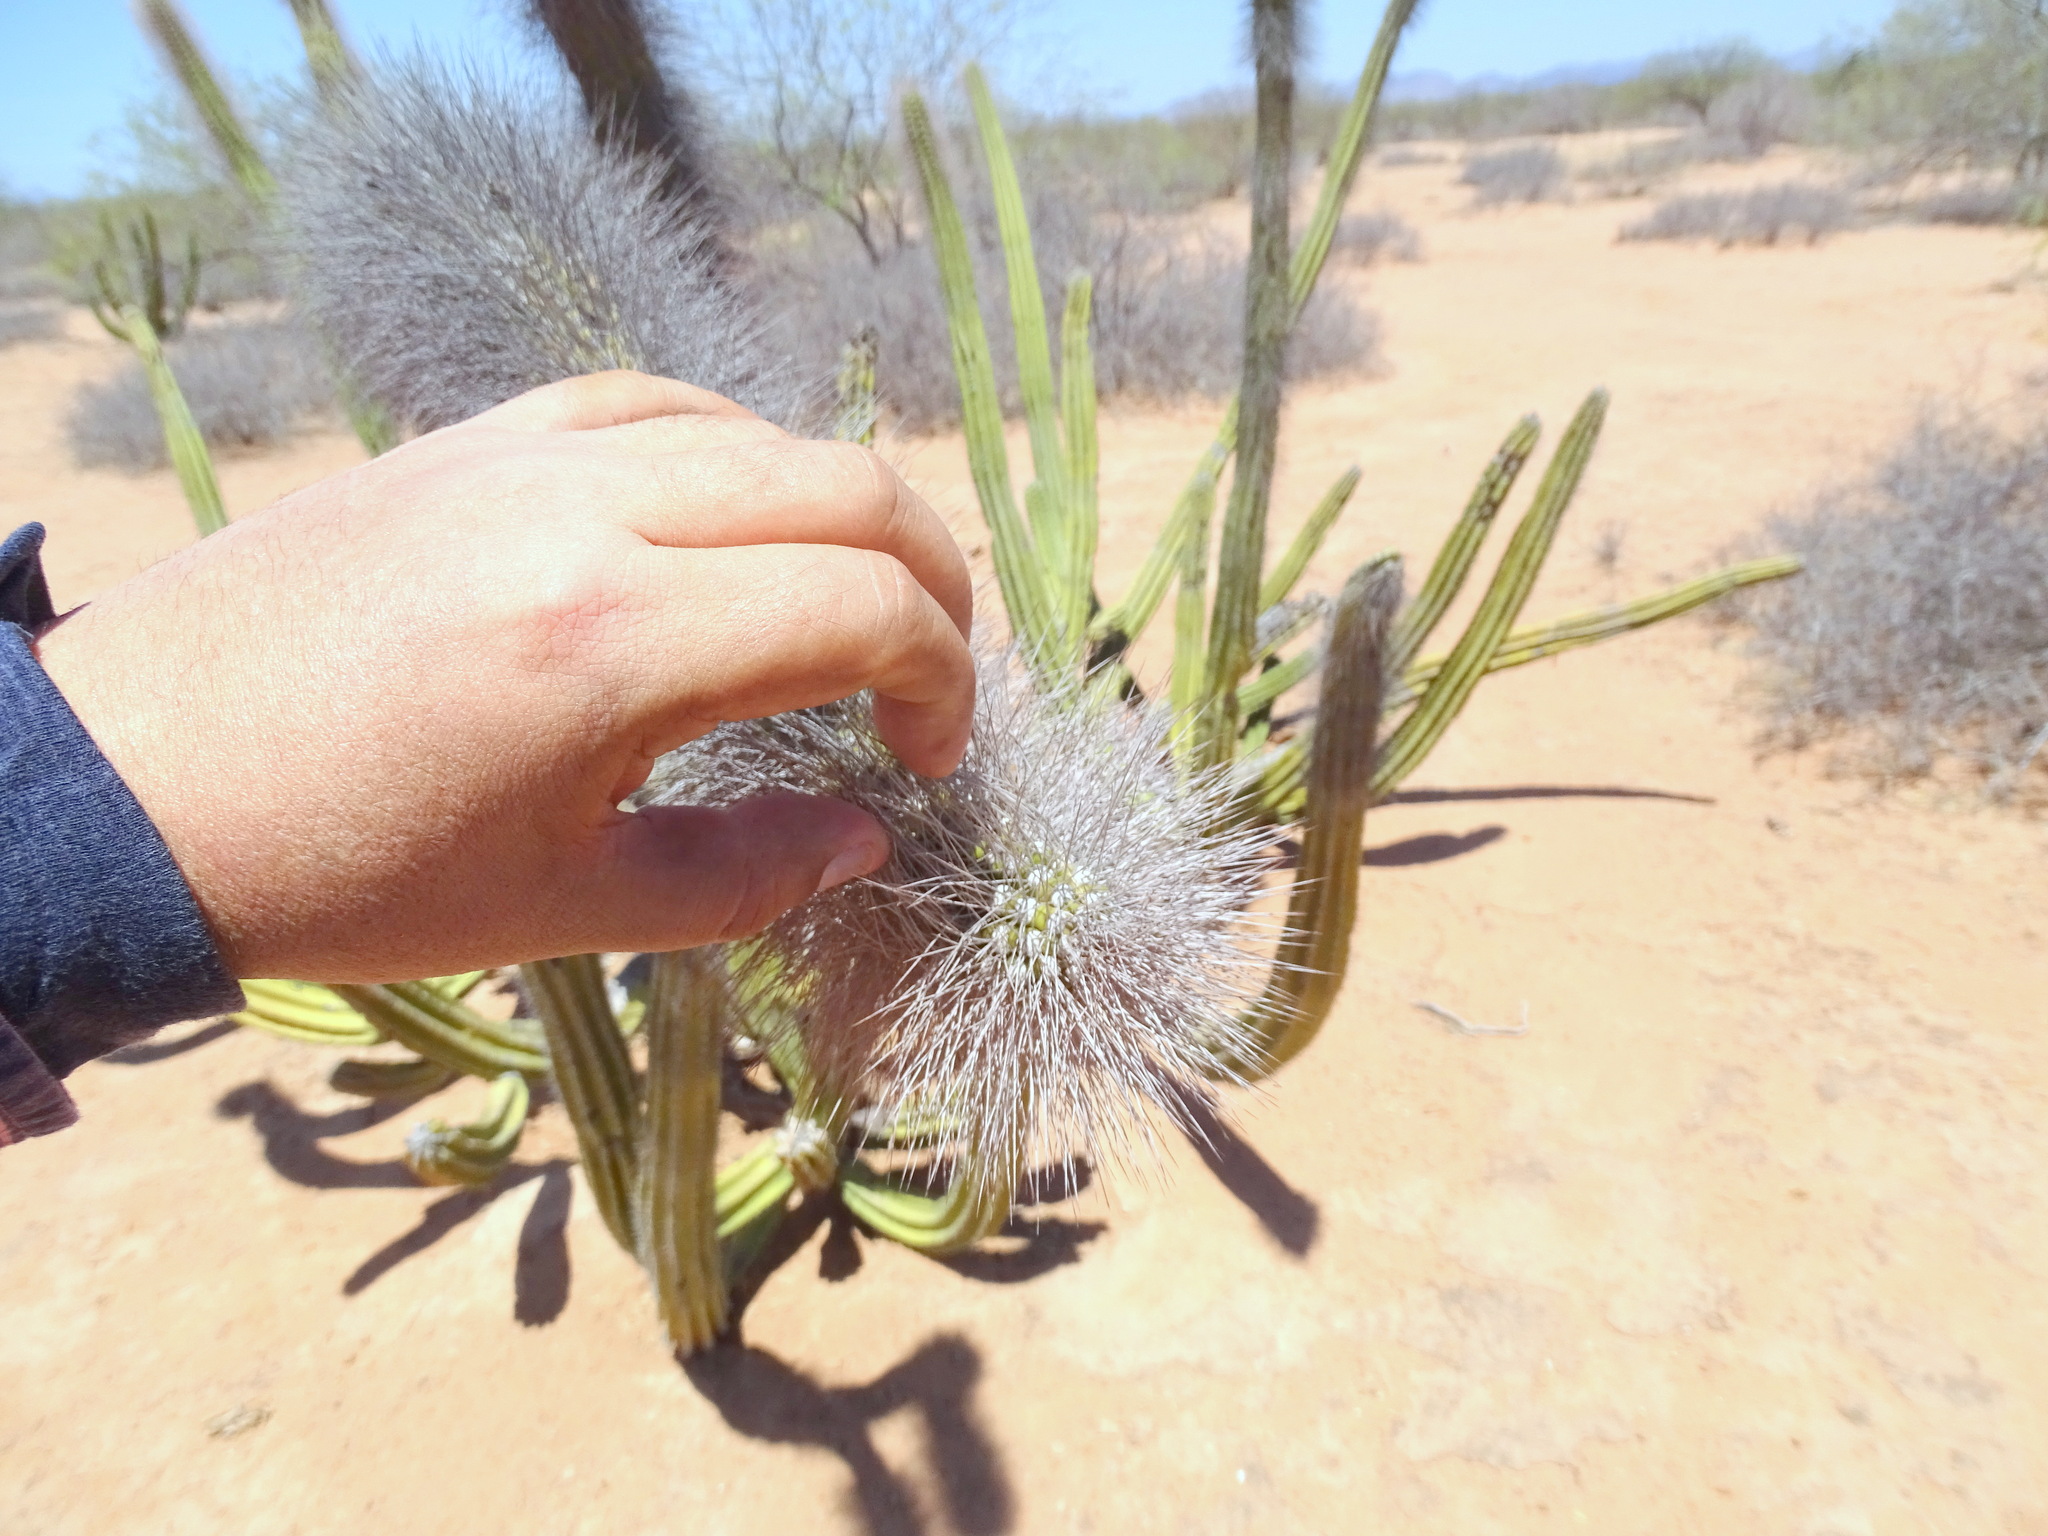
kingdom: Plantae
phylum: Tracheophyta
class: Magnoliopsida
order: Caryophyllales
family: Cactaceae
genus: Pachycereus
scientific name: Pachycereus schottii
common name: Senita cactus
